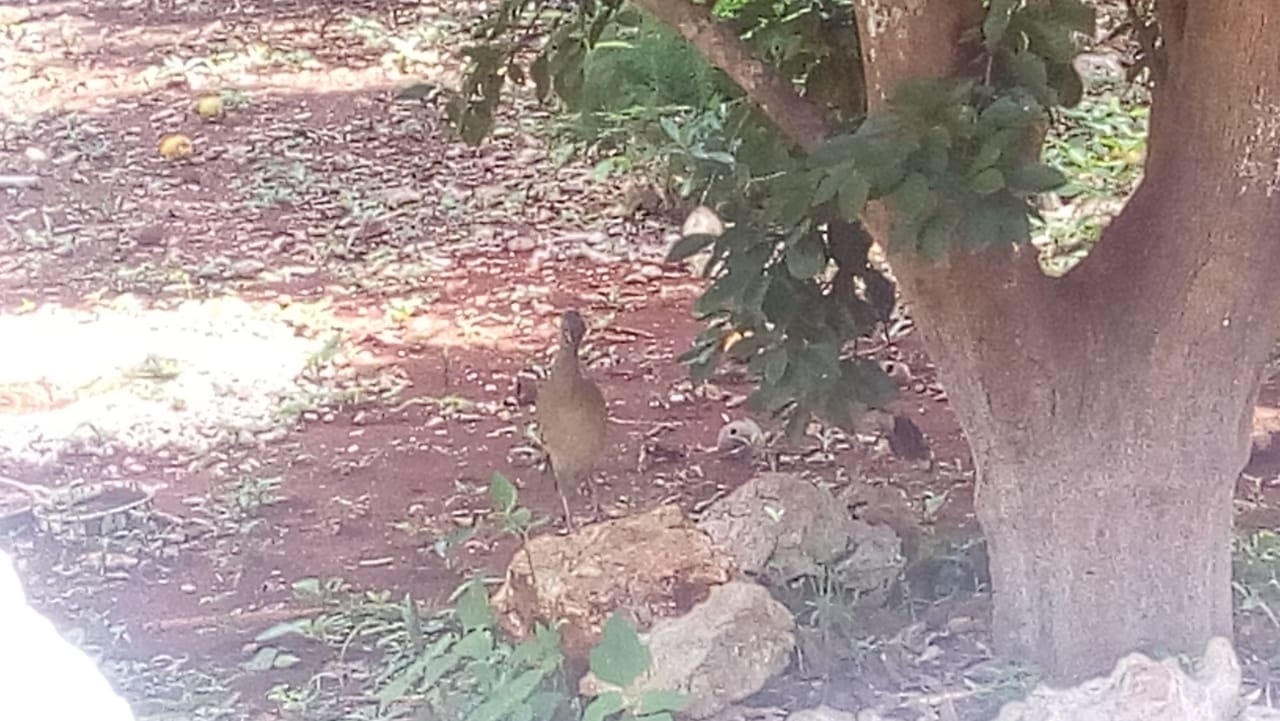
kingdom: Animalia
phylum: Chordata
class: Aves
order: Galliformes
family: Cracidae
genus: Ortalis
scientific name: Ortalis vetula
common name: Plain chachalaca
